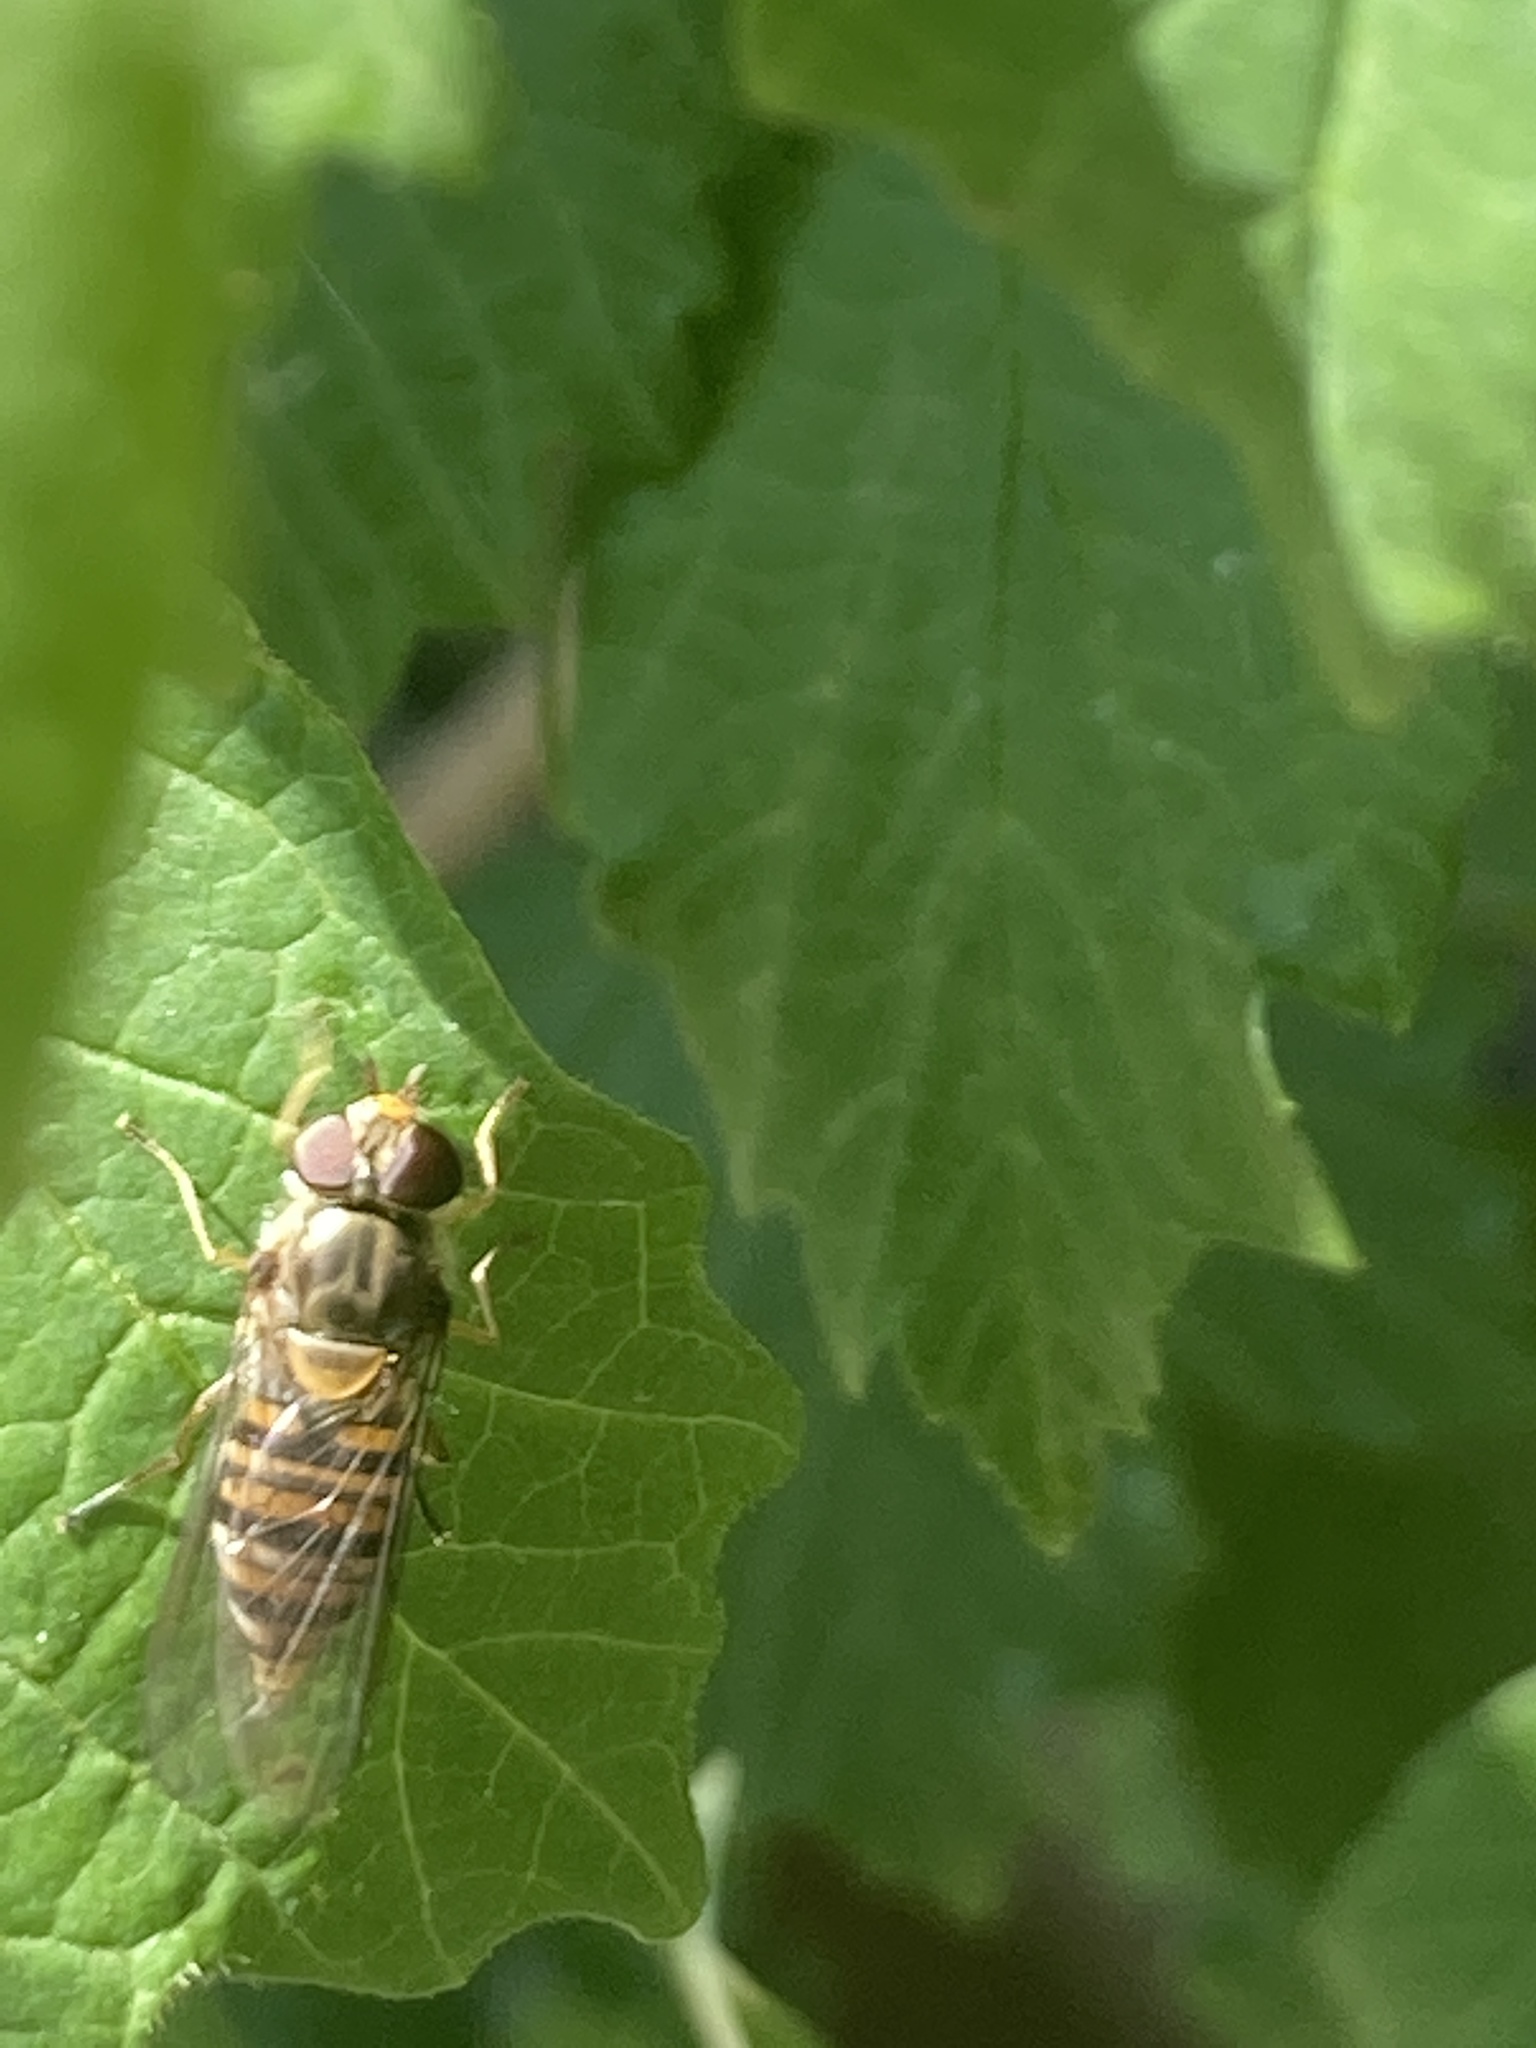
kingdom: Animalia
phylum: Arthropoda
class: Insecta
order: Diptera
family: Syrphidae
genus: Episyrphus
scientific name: Episyrphus balteatus
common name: Marmalade hoverfly
